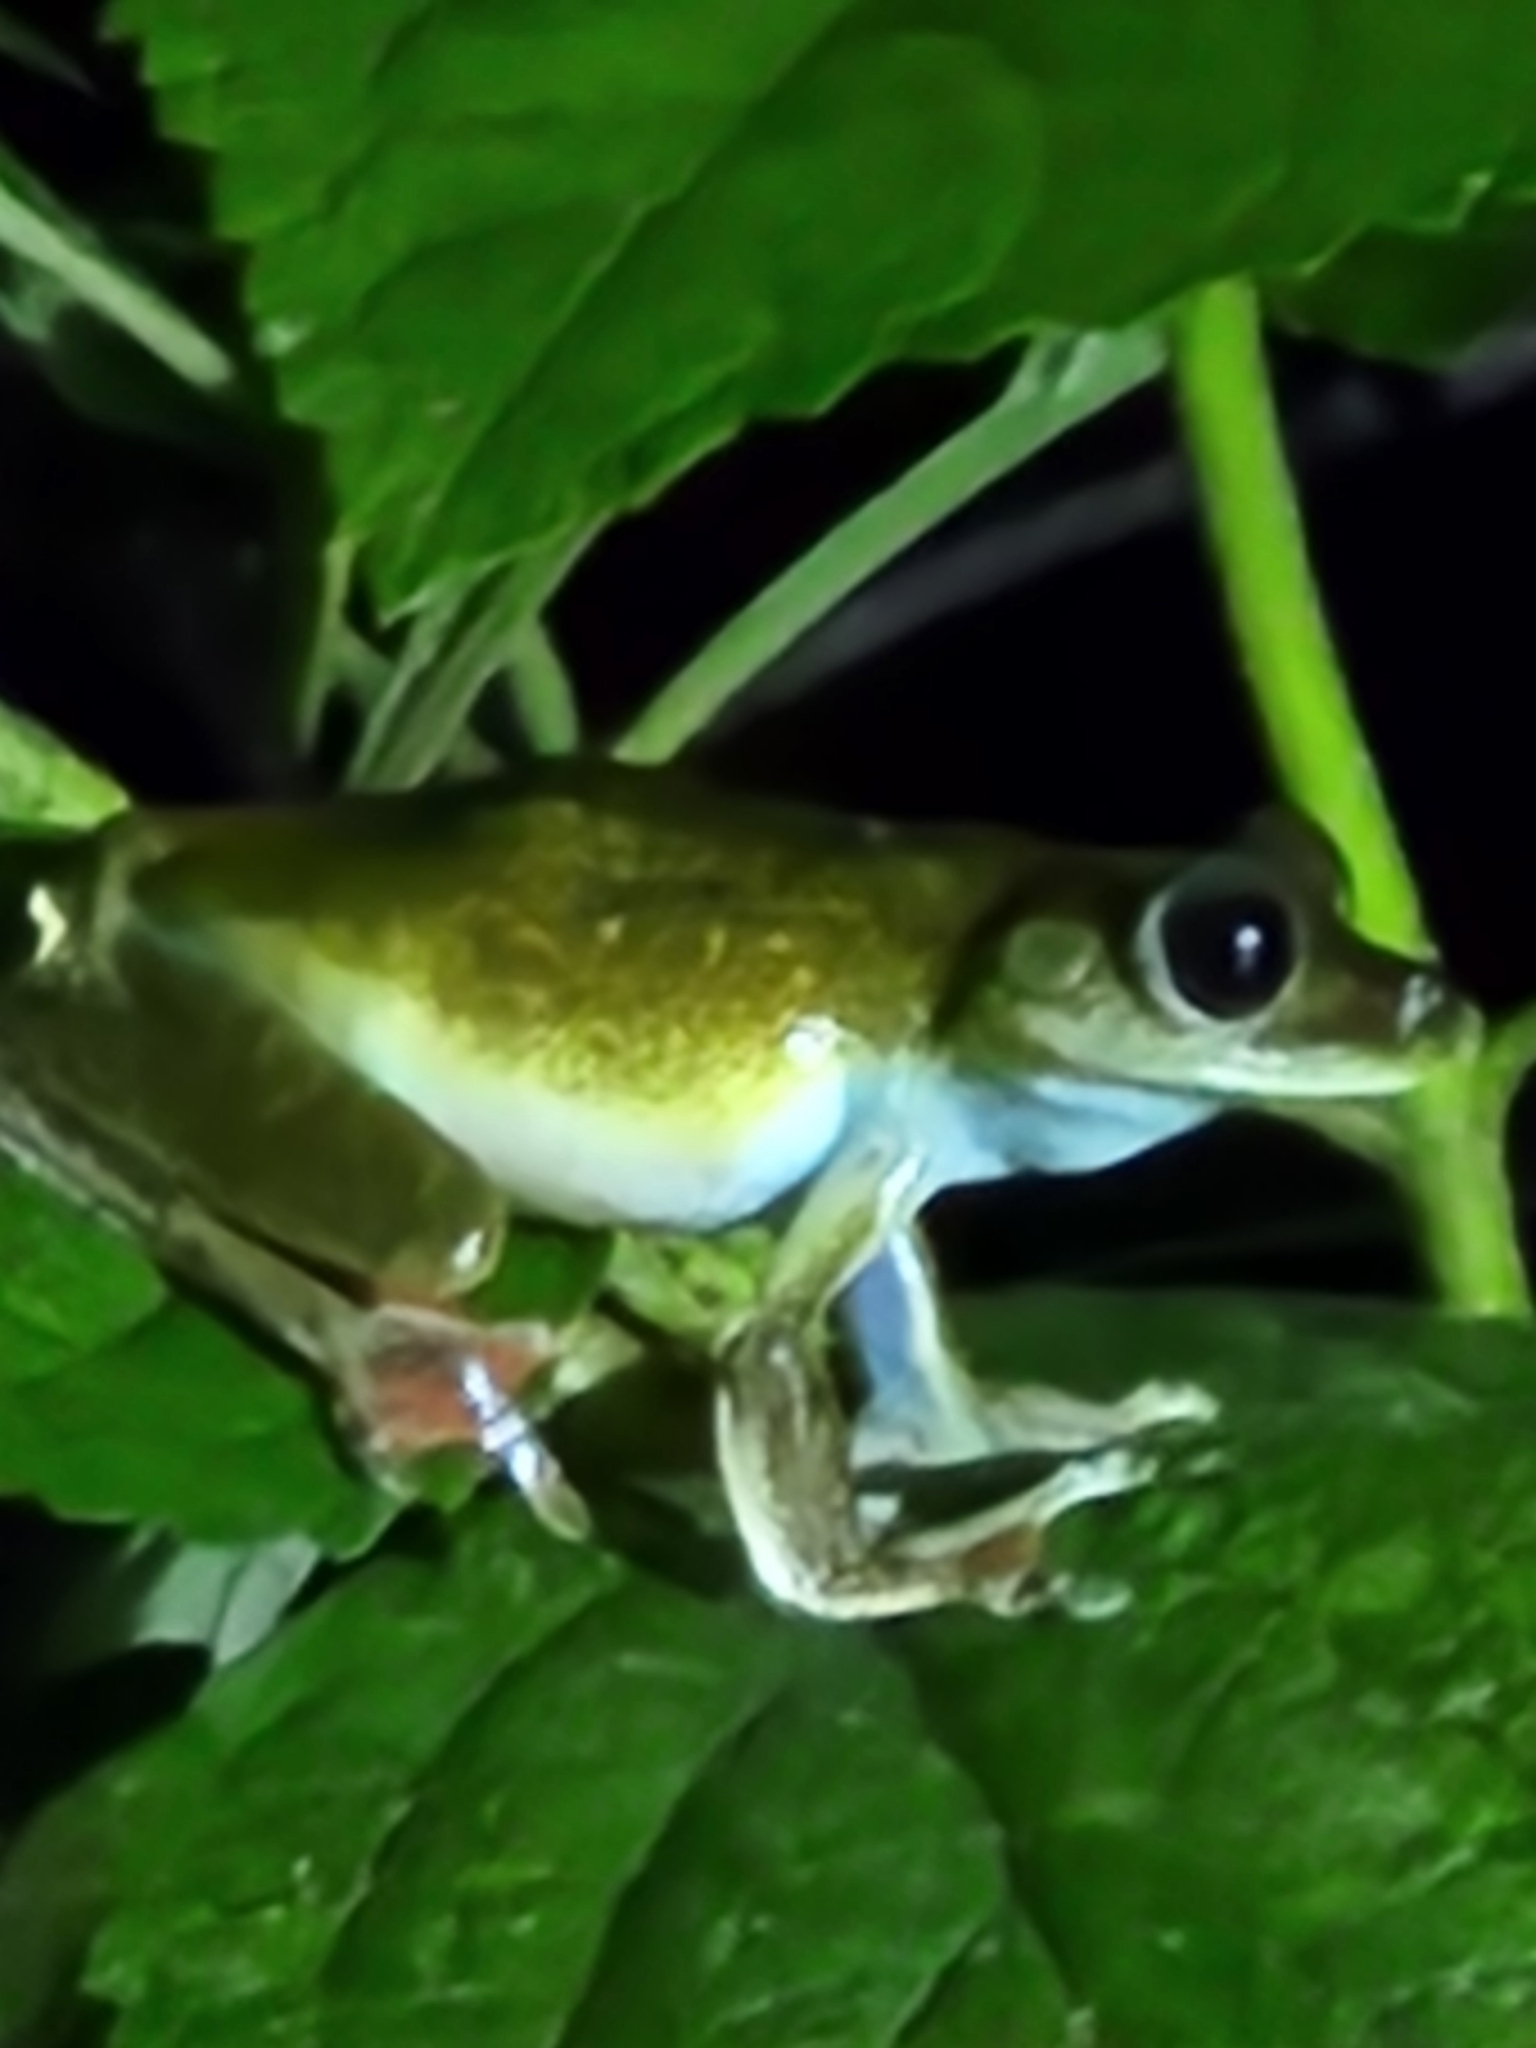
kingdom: Animalia
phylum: Chordata
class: Amphibia
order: Anura
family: Hylidae
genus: Boana
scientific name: Boana rufitela
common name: Canal zone treefrog
